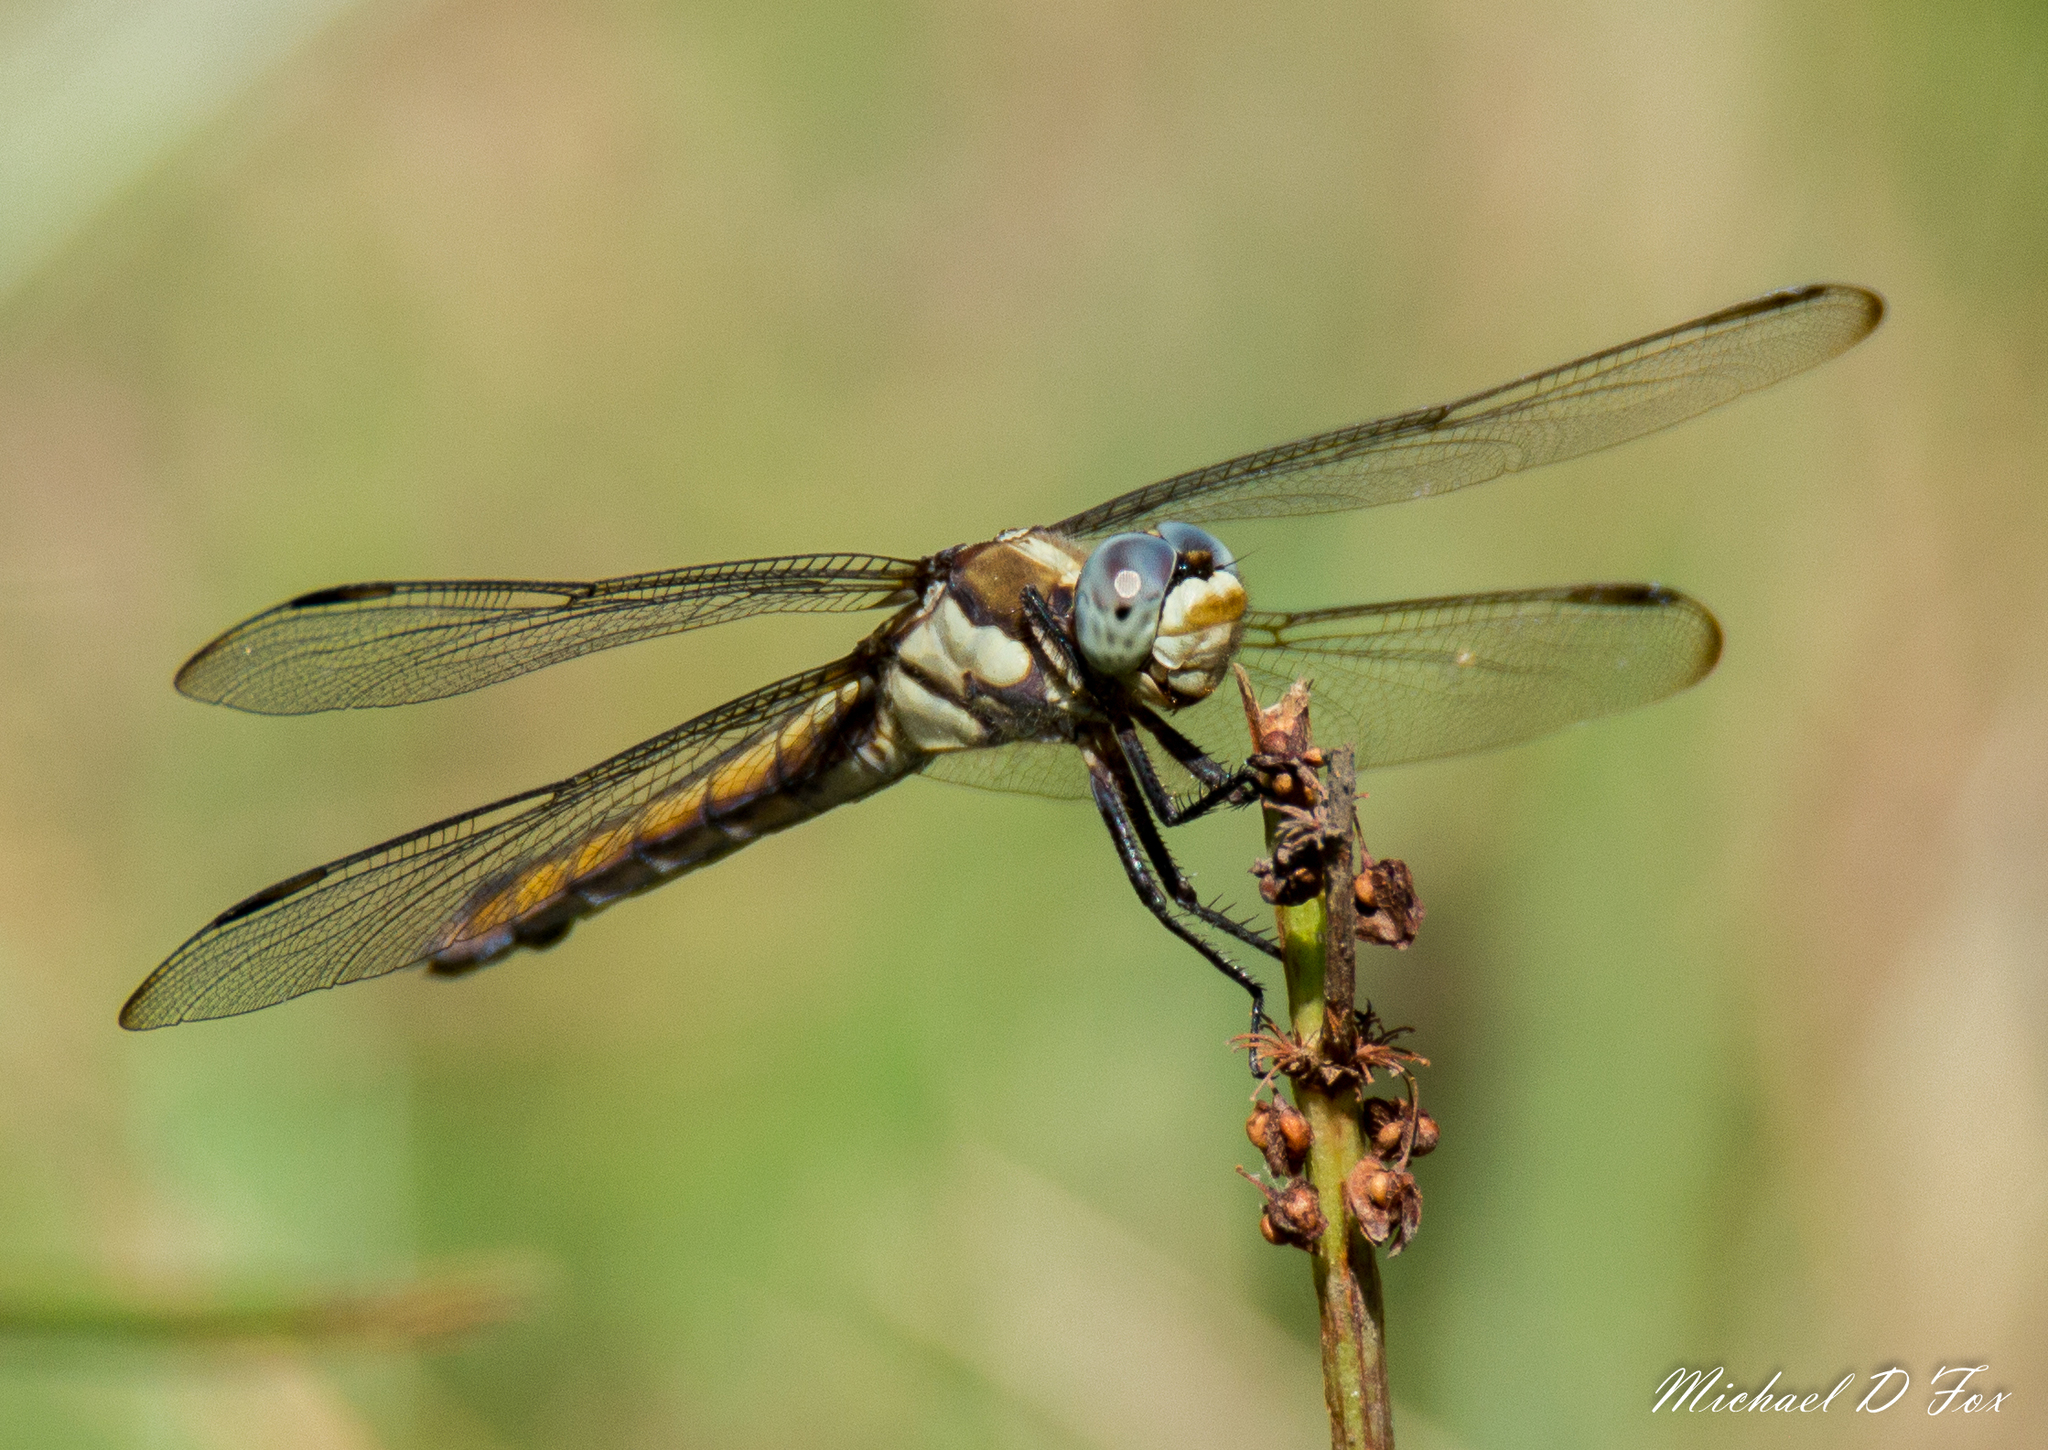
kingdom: Animalia
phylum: Arthropoda
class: Insecta
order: Odonata
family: Libellulidae
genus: Libellula
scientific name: Libellula comanche
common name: Comanche skimmer
